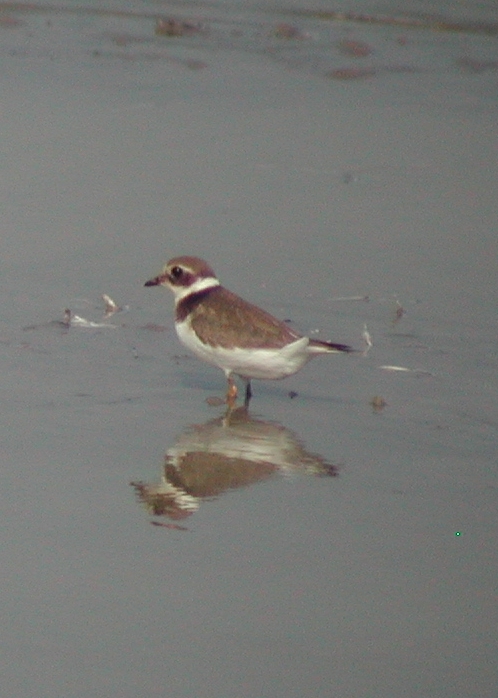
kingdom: Animalia
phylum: Chordata
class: Aves
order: Charadriiformes
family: Charadriidae
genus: Charadrius
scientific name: Charadrius hiaticula
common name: Common ringed plover
